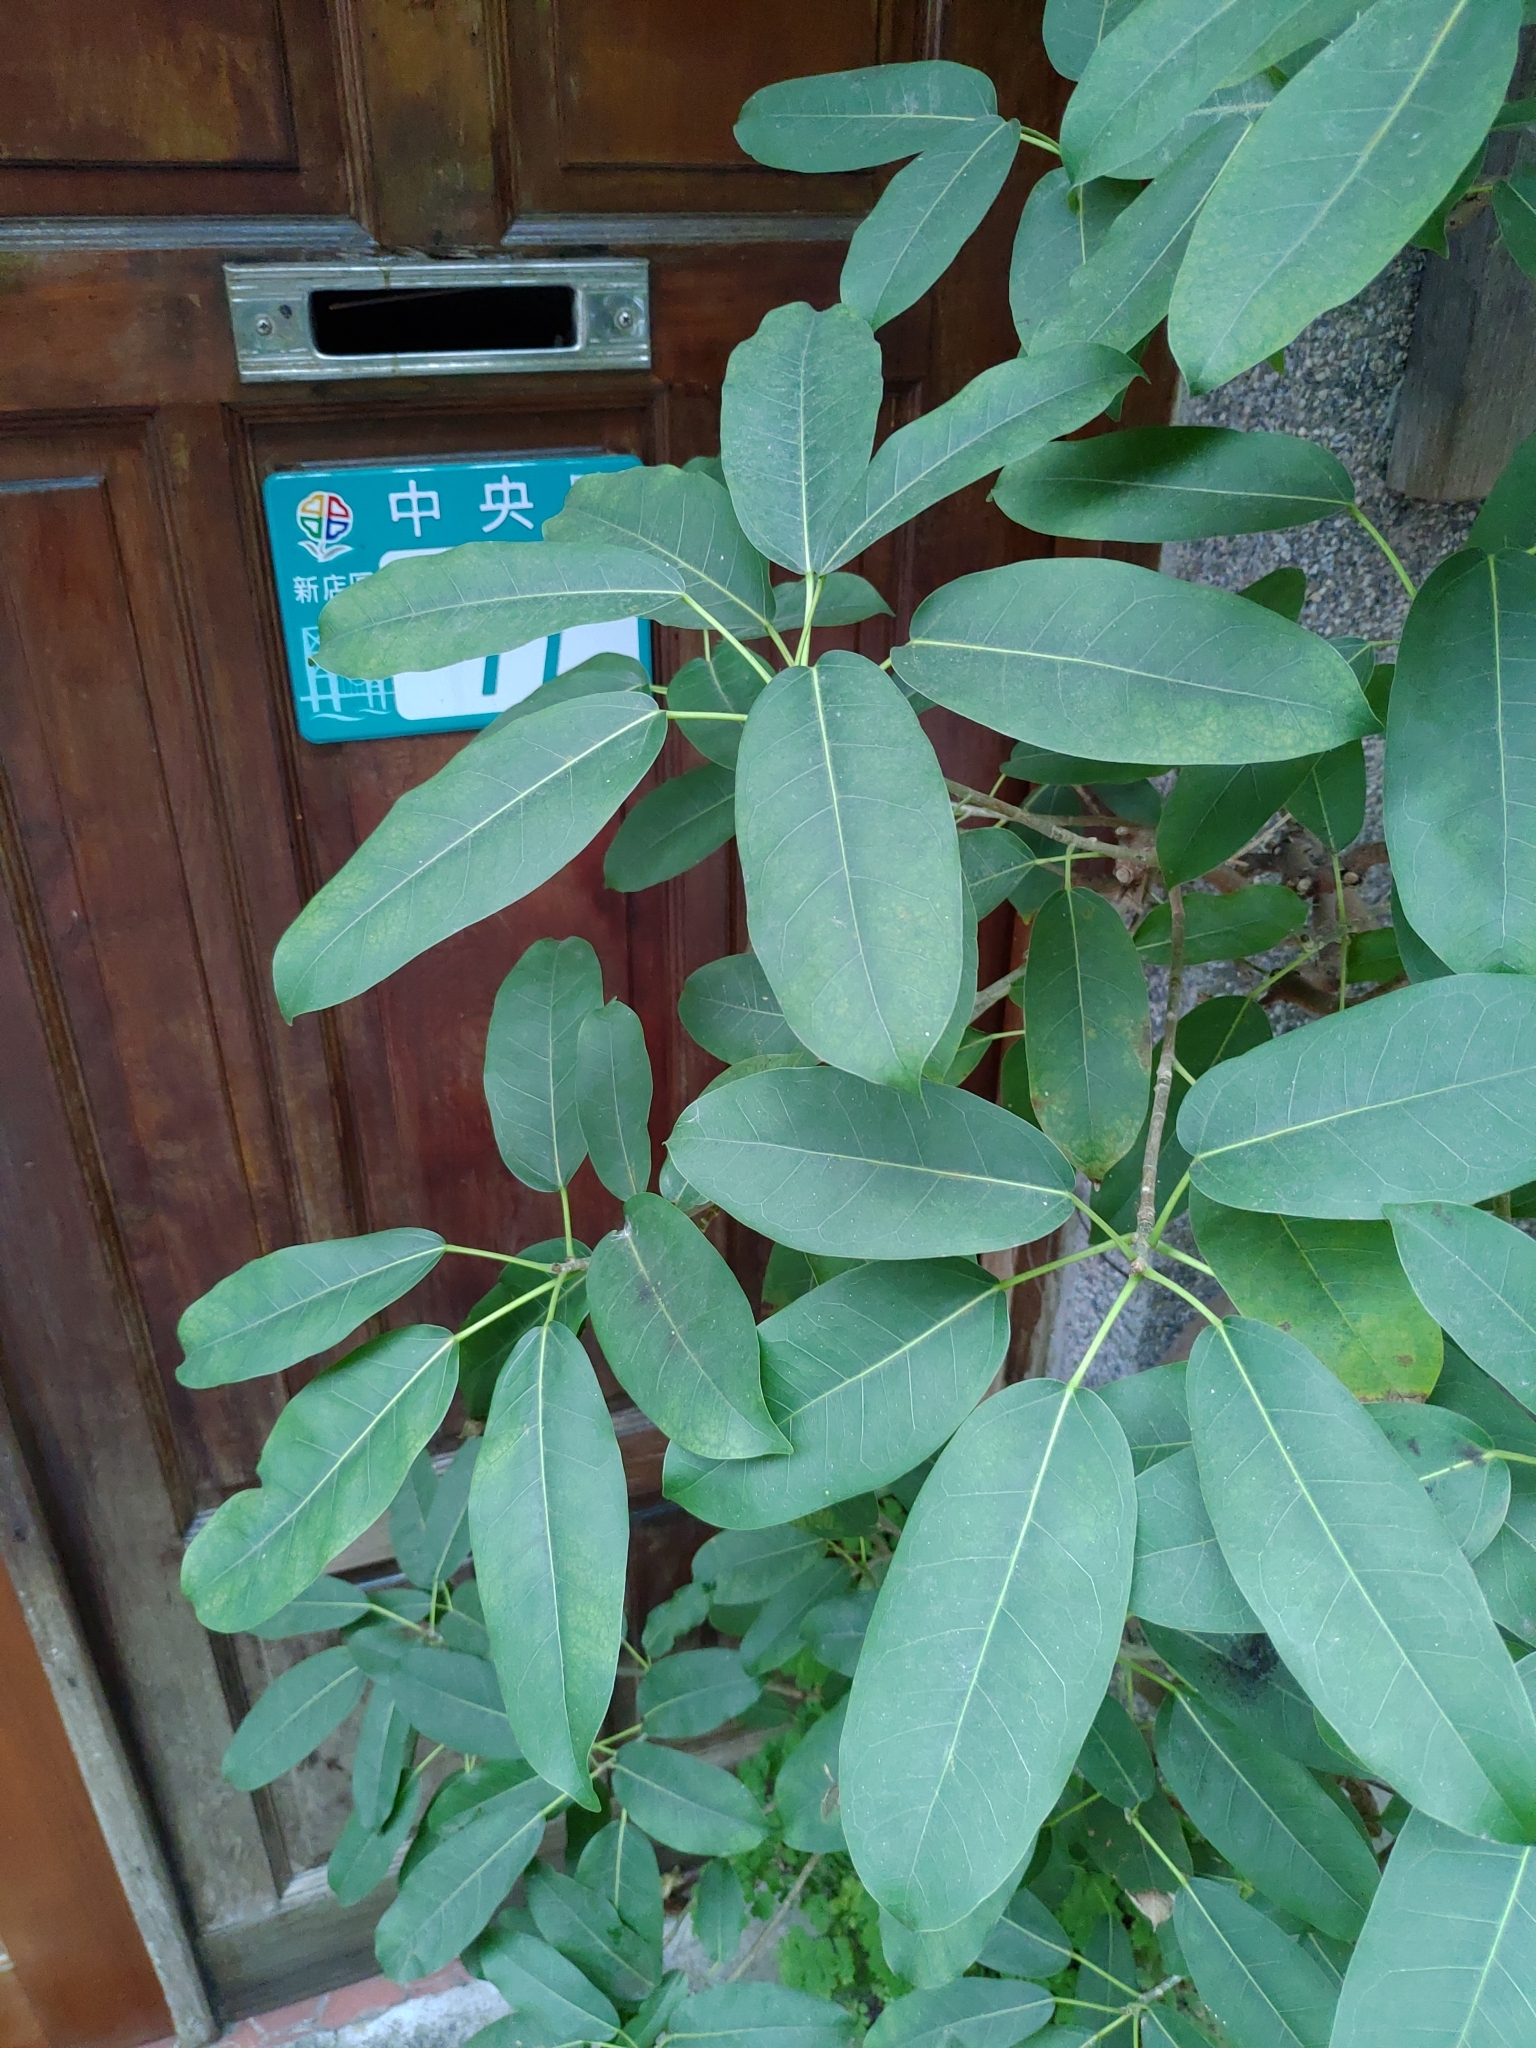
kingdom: Plantae
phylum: Tracheophyta
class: Magnoliopsida
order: Rosales
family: Moraceae
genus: Ficus
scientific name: Ficus subpisocarpa
